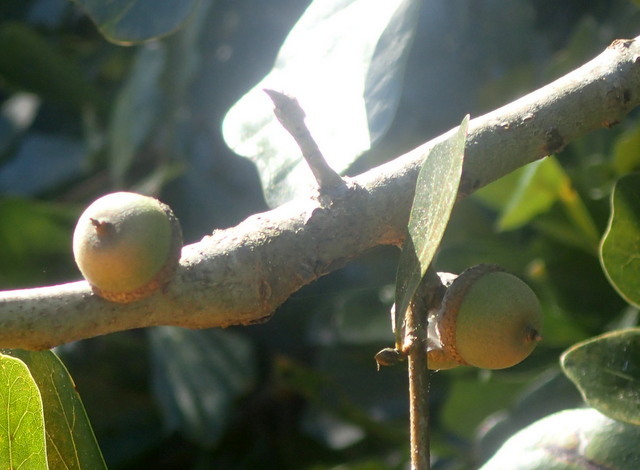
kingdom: Plantae
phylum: Tracheophyta
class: Magnoliopsida
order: Fagales
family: Fagaceae
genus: Quercus
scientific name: Quercus nigra
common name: Water oak
